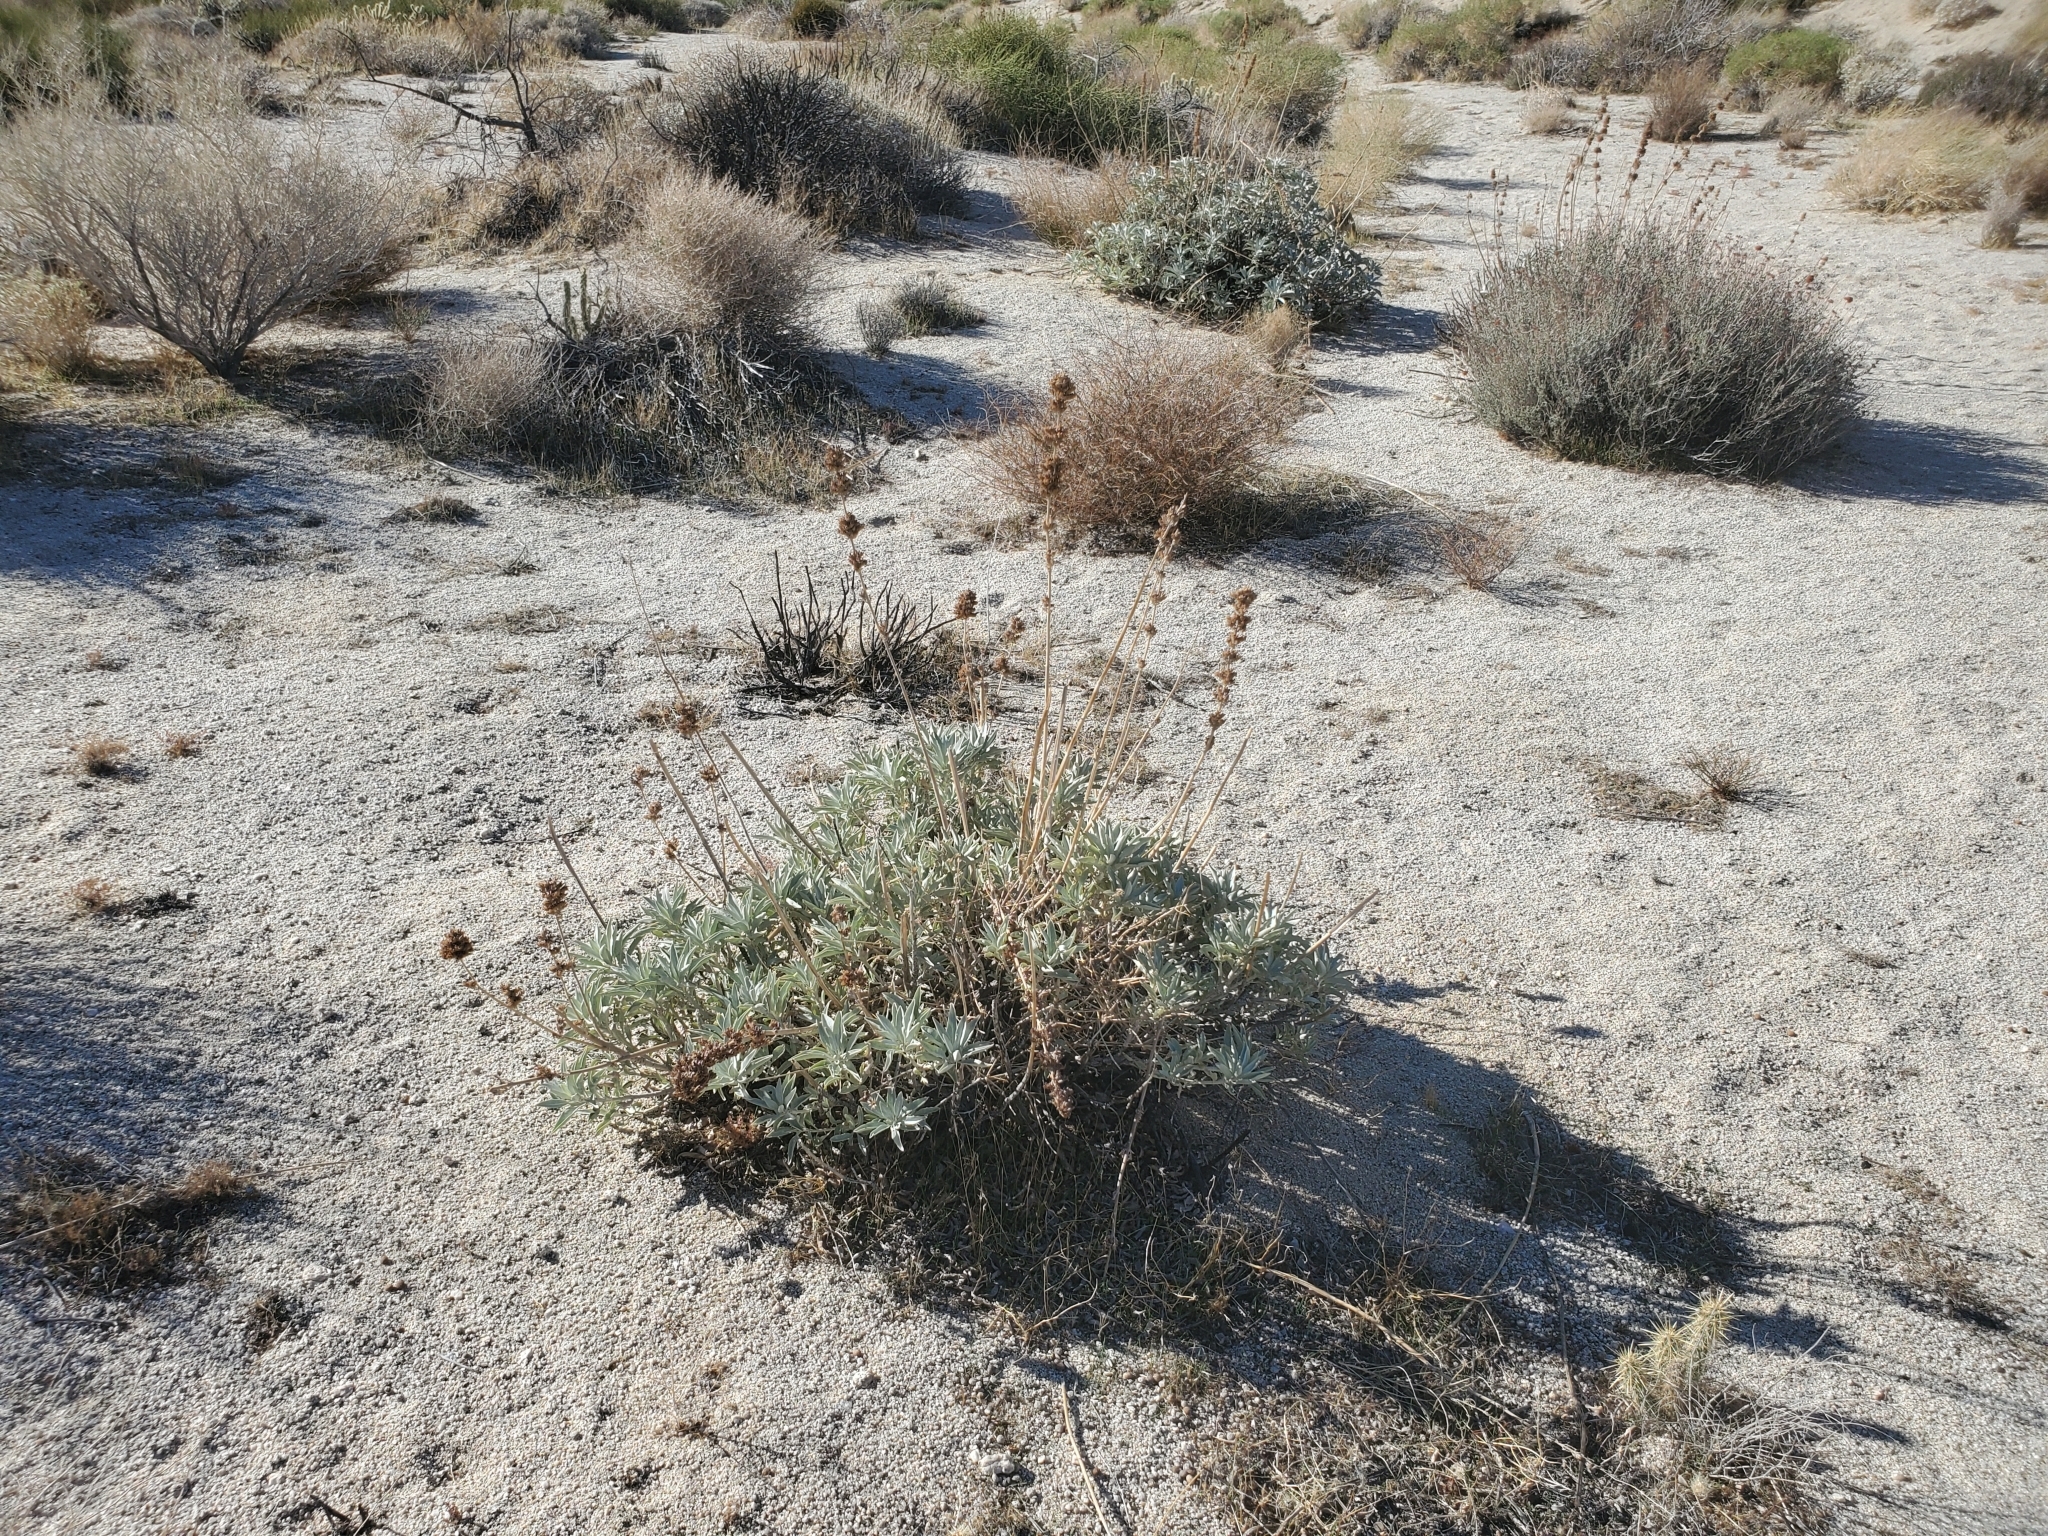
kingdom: Plantae
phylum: Tracheophyta
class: Magnoliopsida
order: Lamiales
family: Lamiaceae
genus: Salvia
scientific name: Salvia apiana
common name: White sage
